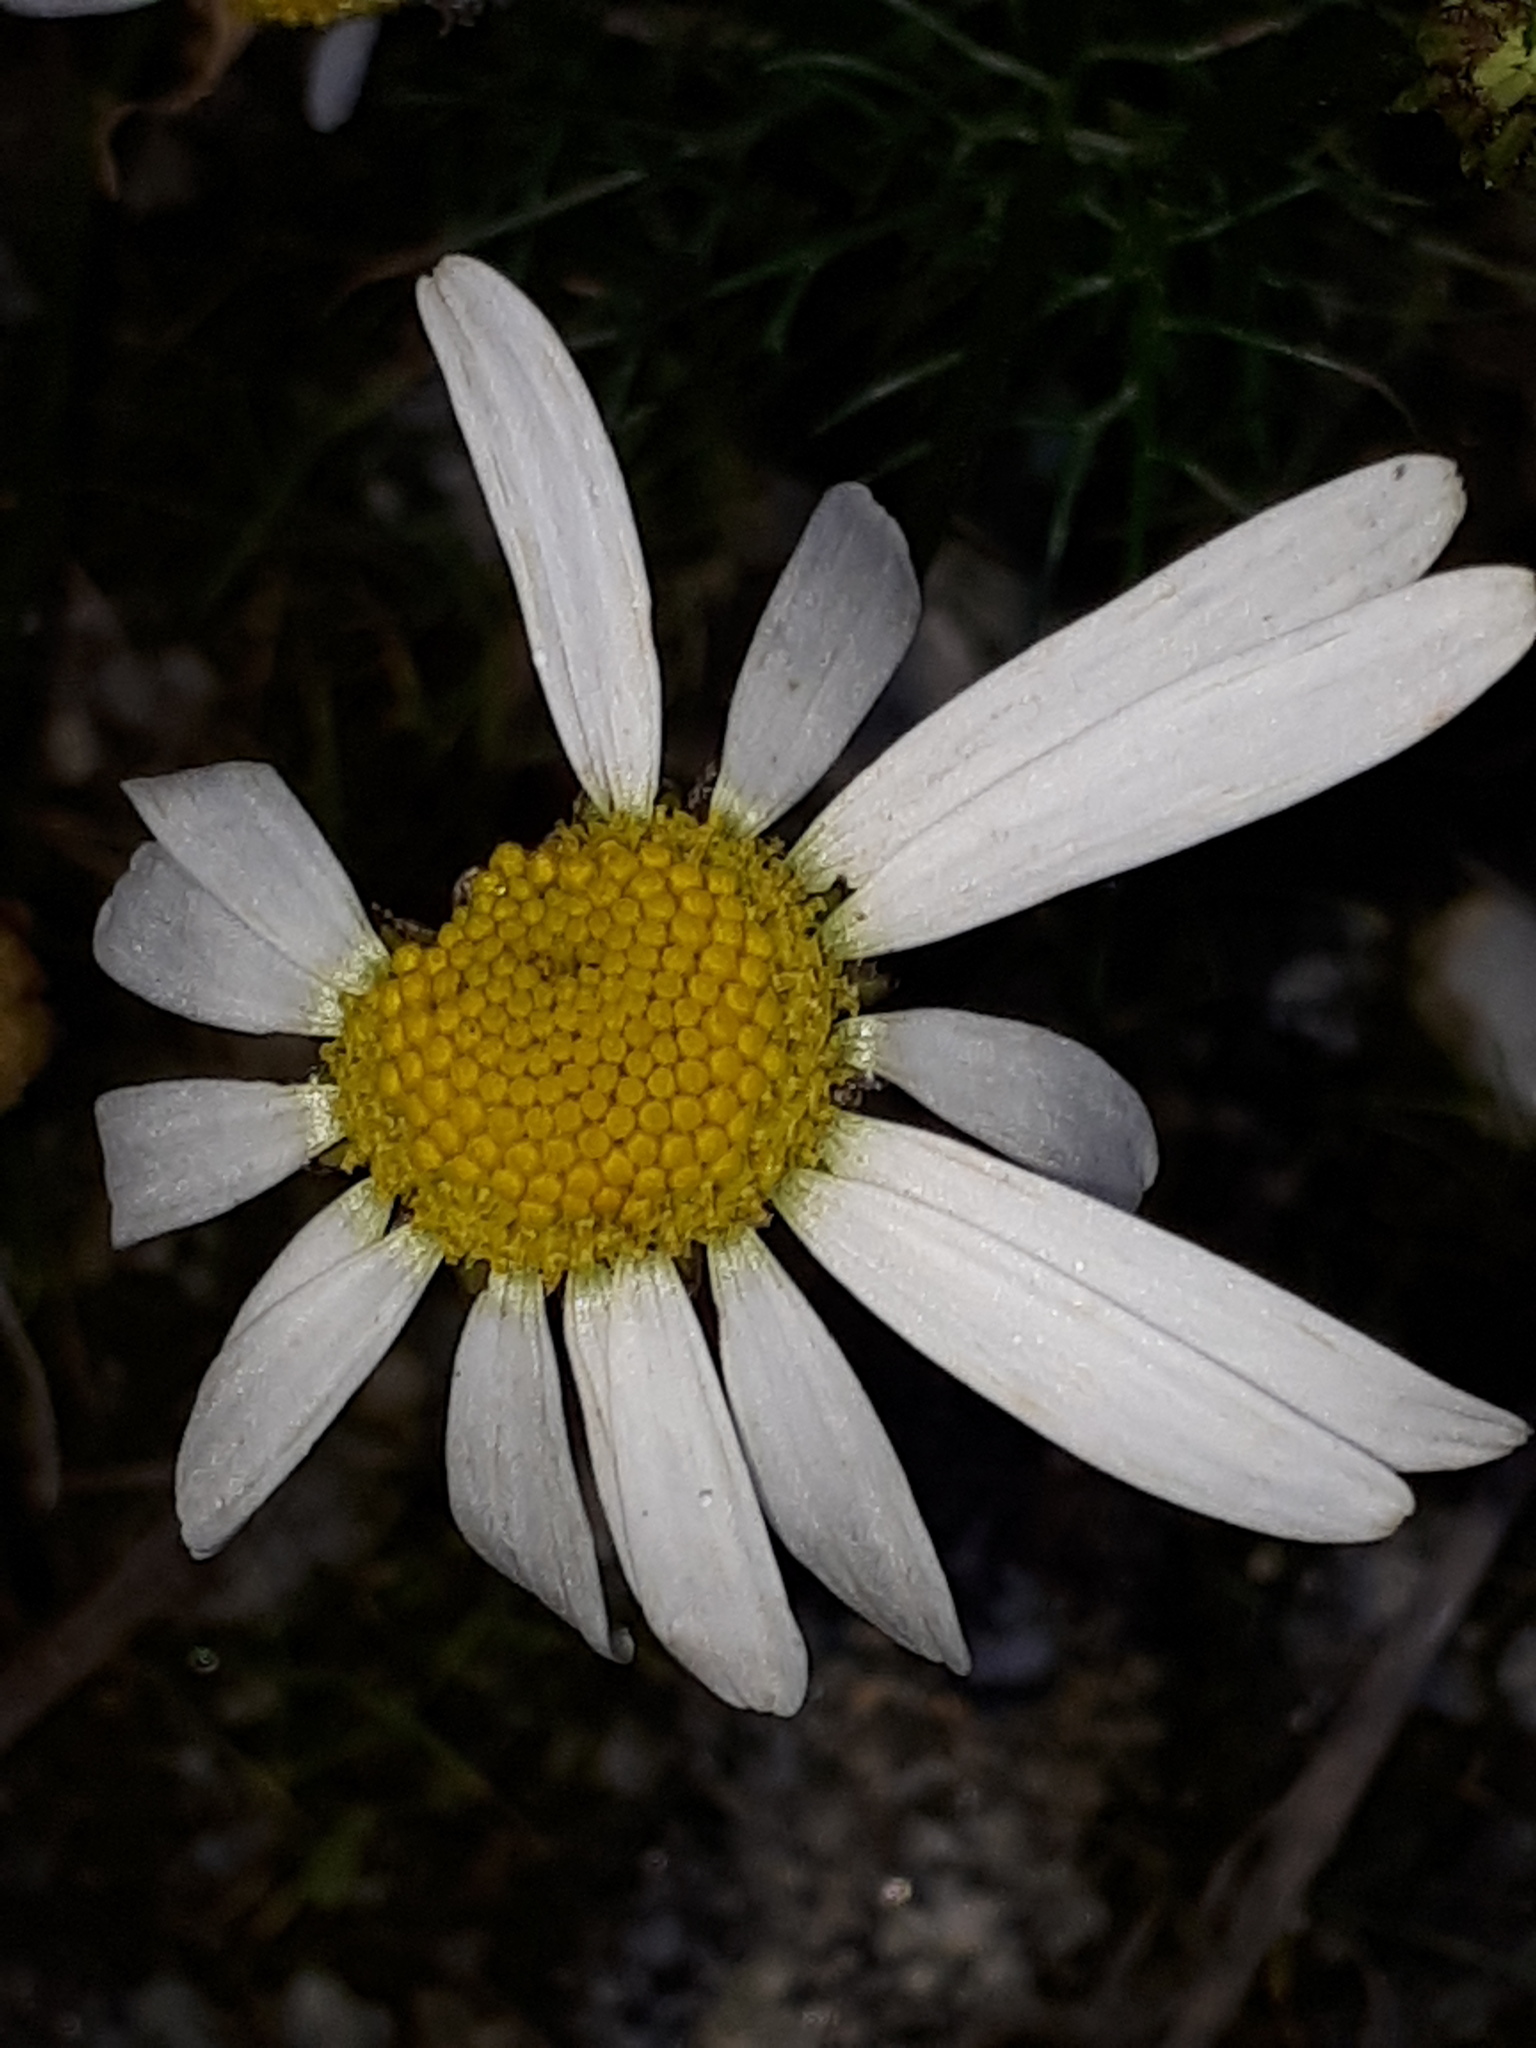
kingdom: Plantae
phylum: Tracheophyta
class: Magnoliopsida
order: Asterales
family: Asteraceae
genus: Tripleurospermum
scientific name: Tripleurospermum inodorum
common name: Scentless mayweed
